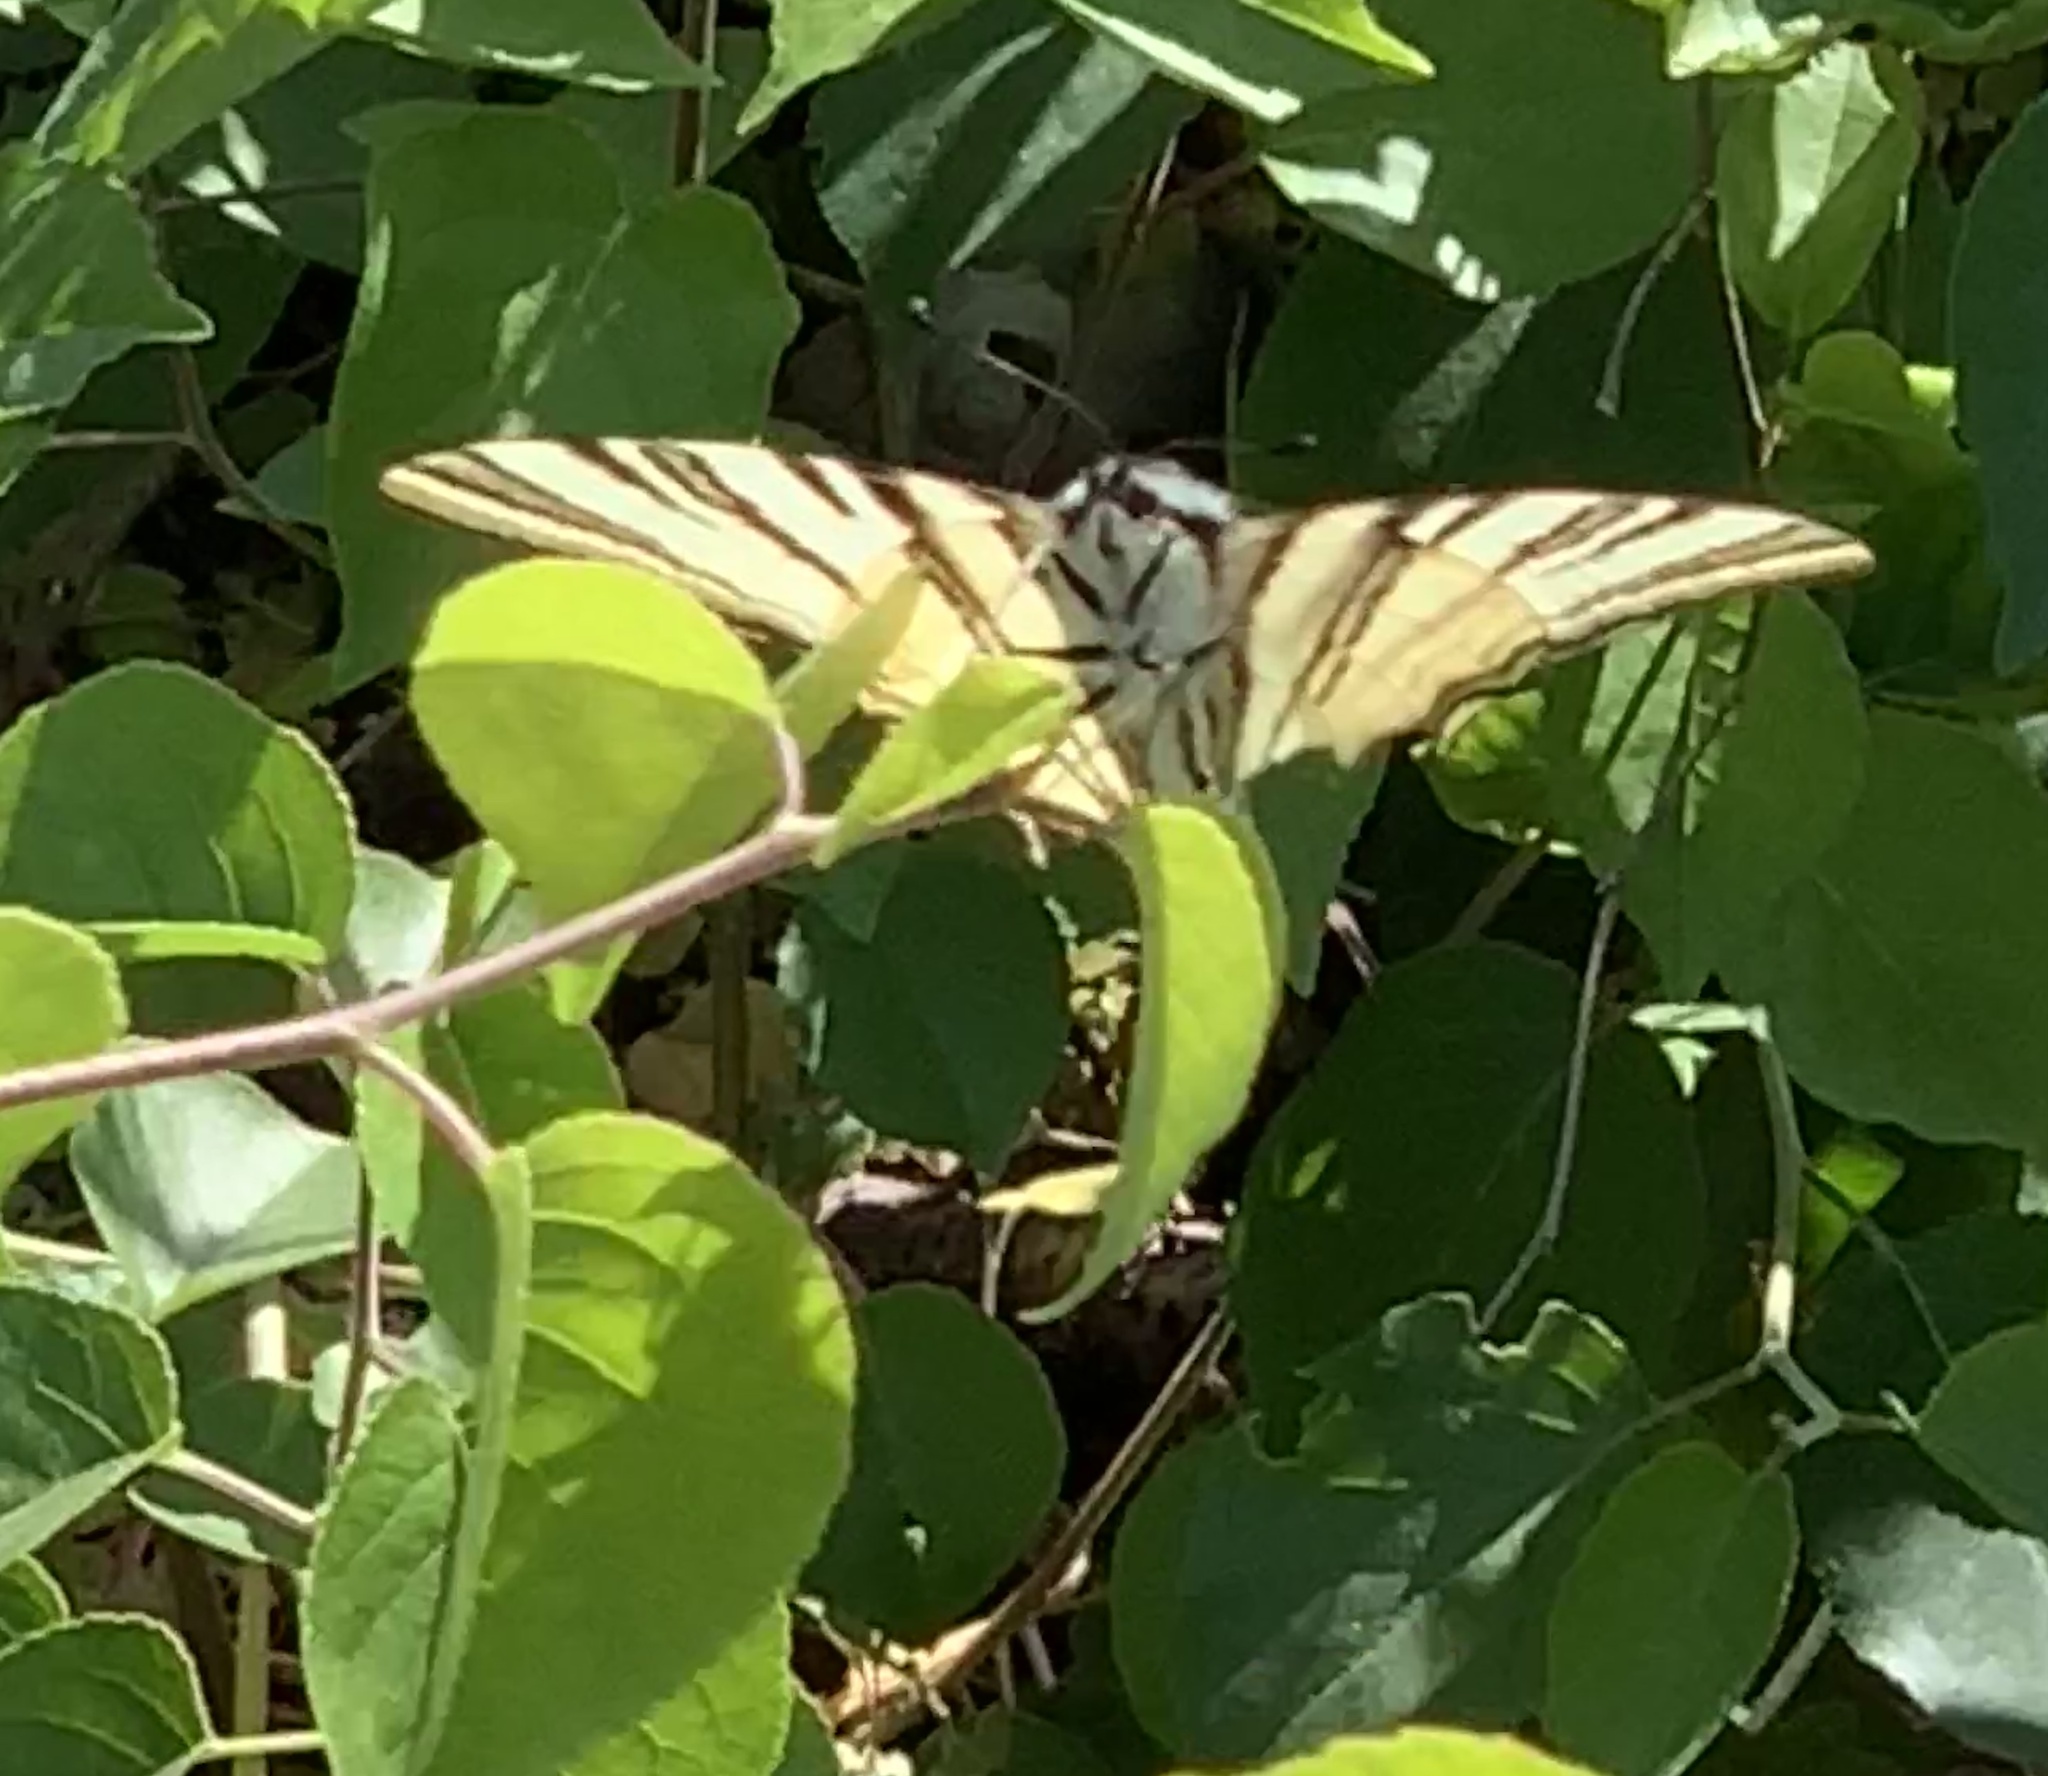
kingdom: Animalia
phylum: Arthropoda
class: Insecta
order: Lepidoptera
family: Papilionidae
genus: Iphiclides
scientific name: Iphiclides podalirius
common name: Scarce swallowtail
